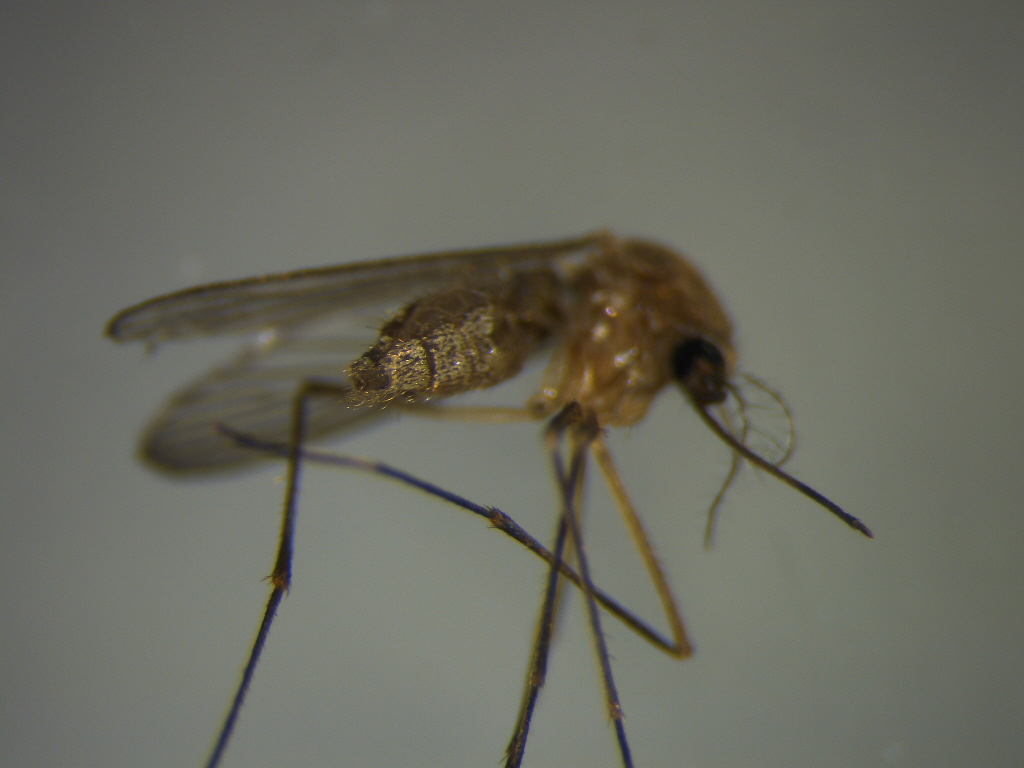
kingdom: Animalia
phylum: Arthropoda
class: Insecta
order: Diptera
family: Culicidae
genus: Culex
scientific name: Culex quinquefasciatus
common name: Southern house mosquito
